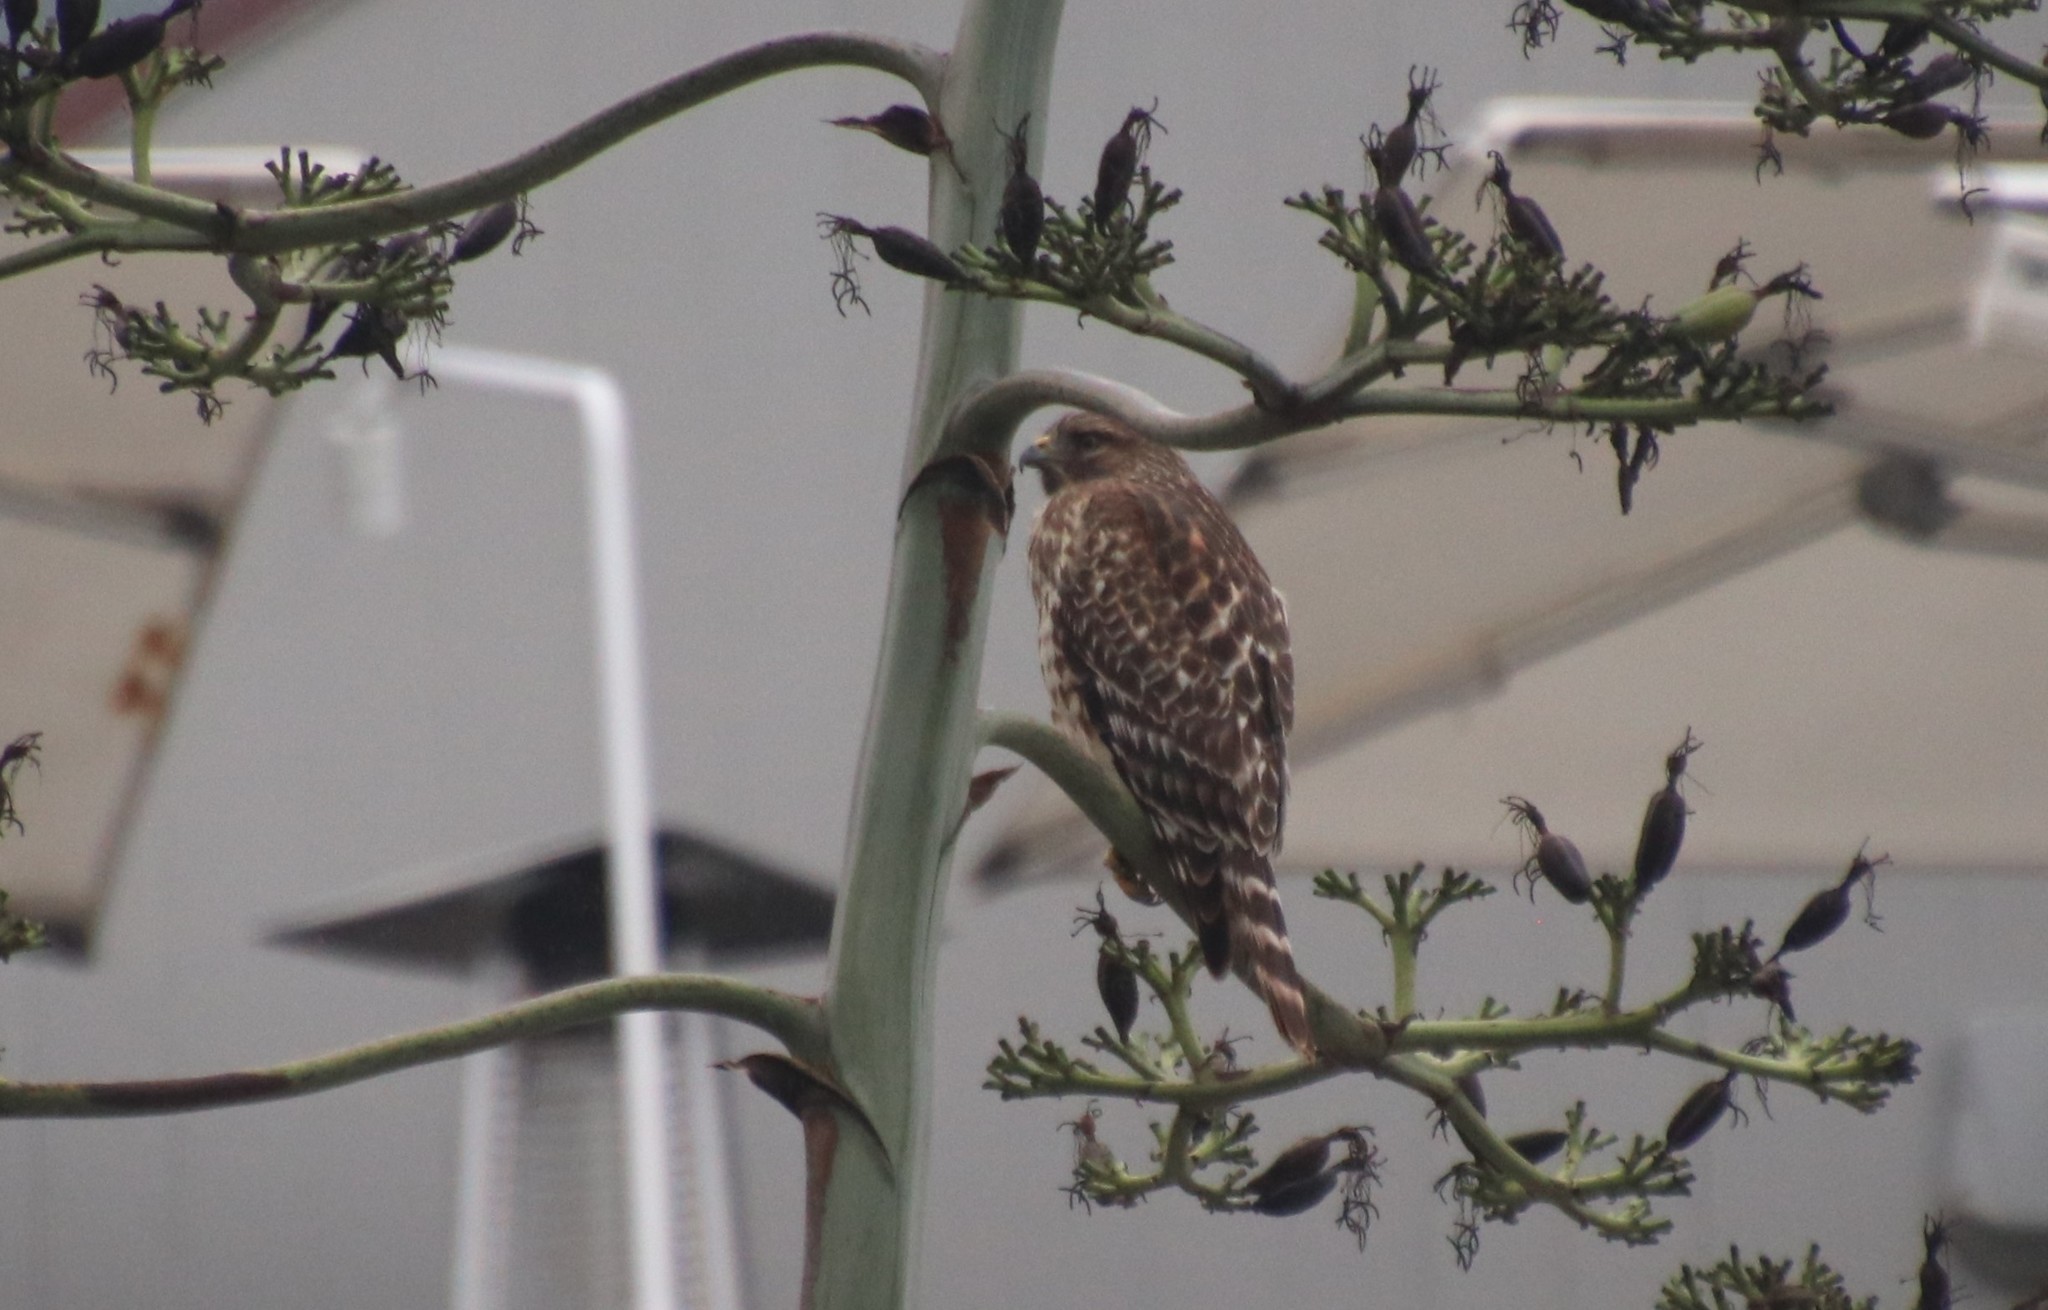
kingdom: Animalia
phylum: Chordata
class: Aves
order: Accipitriformes
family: Accipitridae
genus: Buteo
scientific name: Buteo lineatus
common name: Red-shouldered hawk
